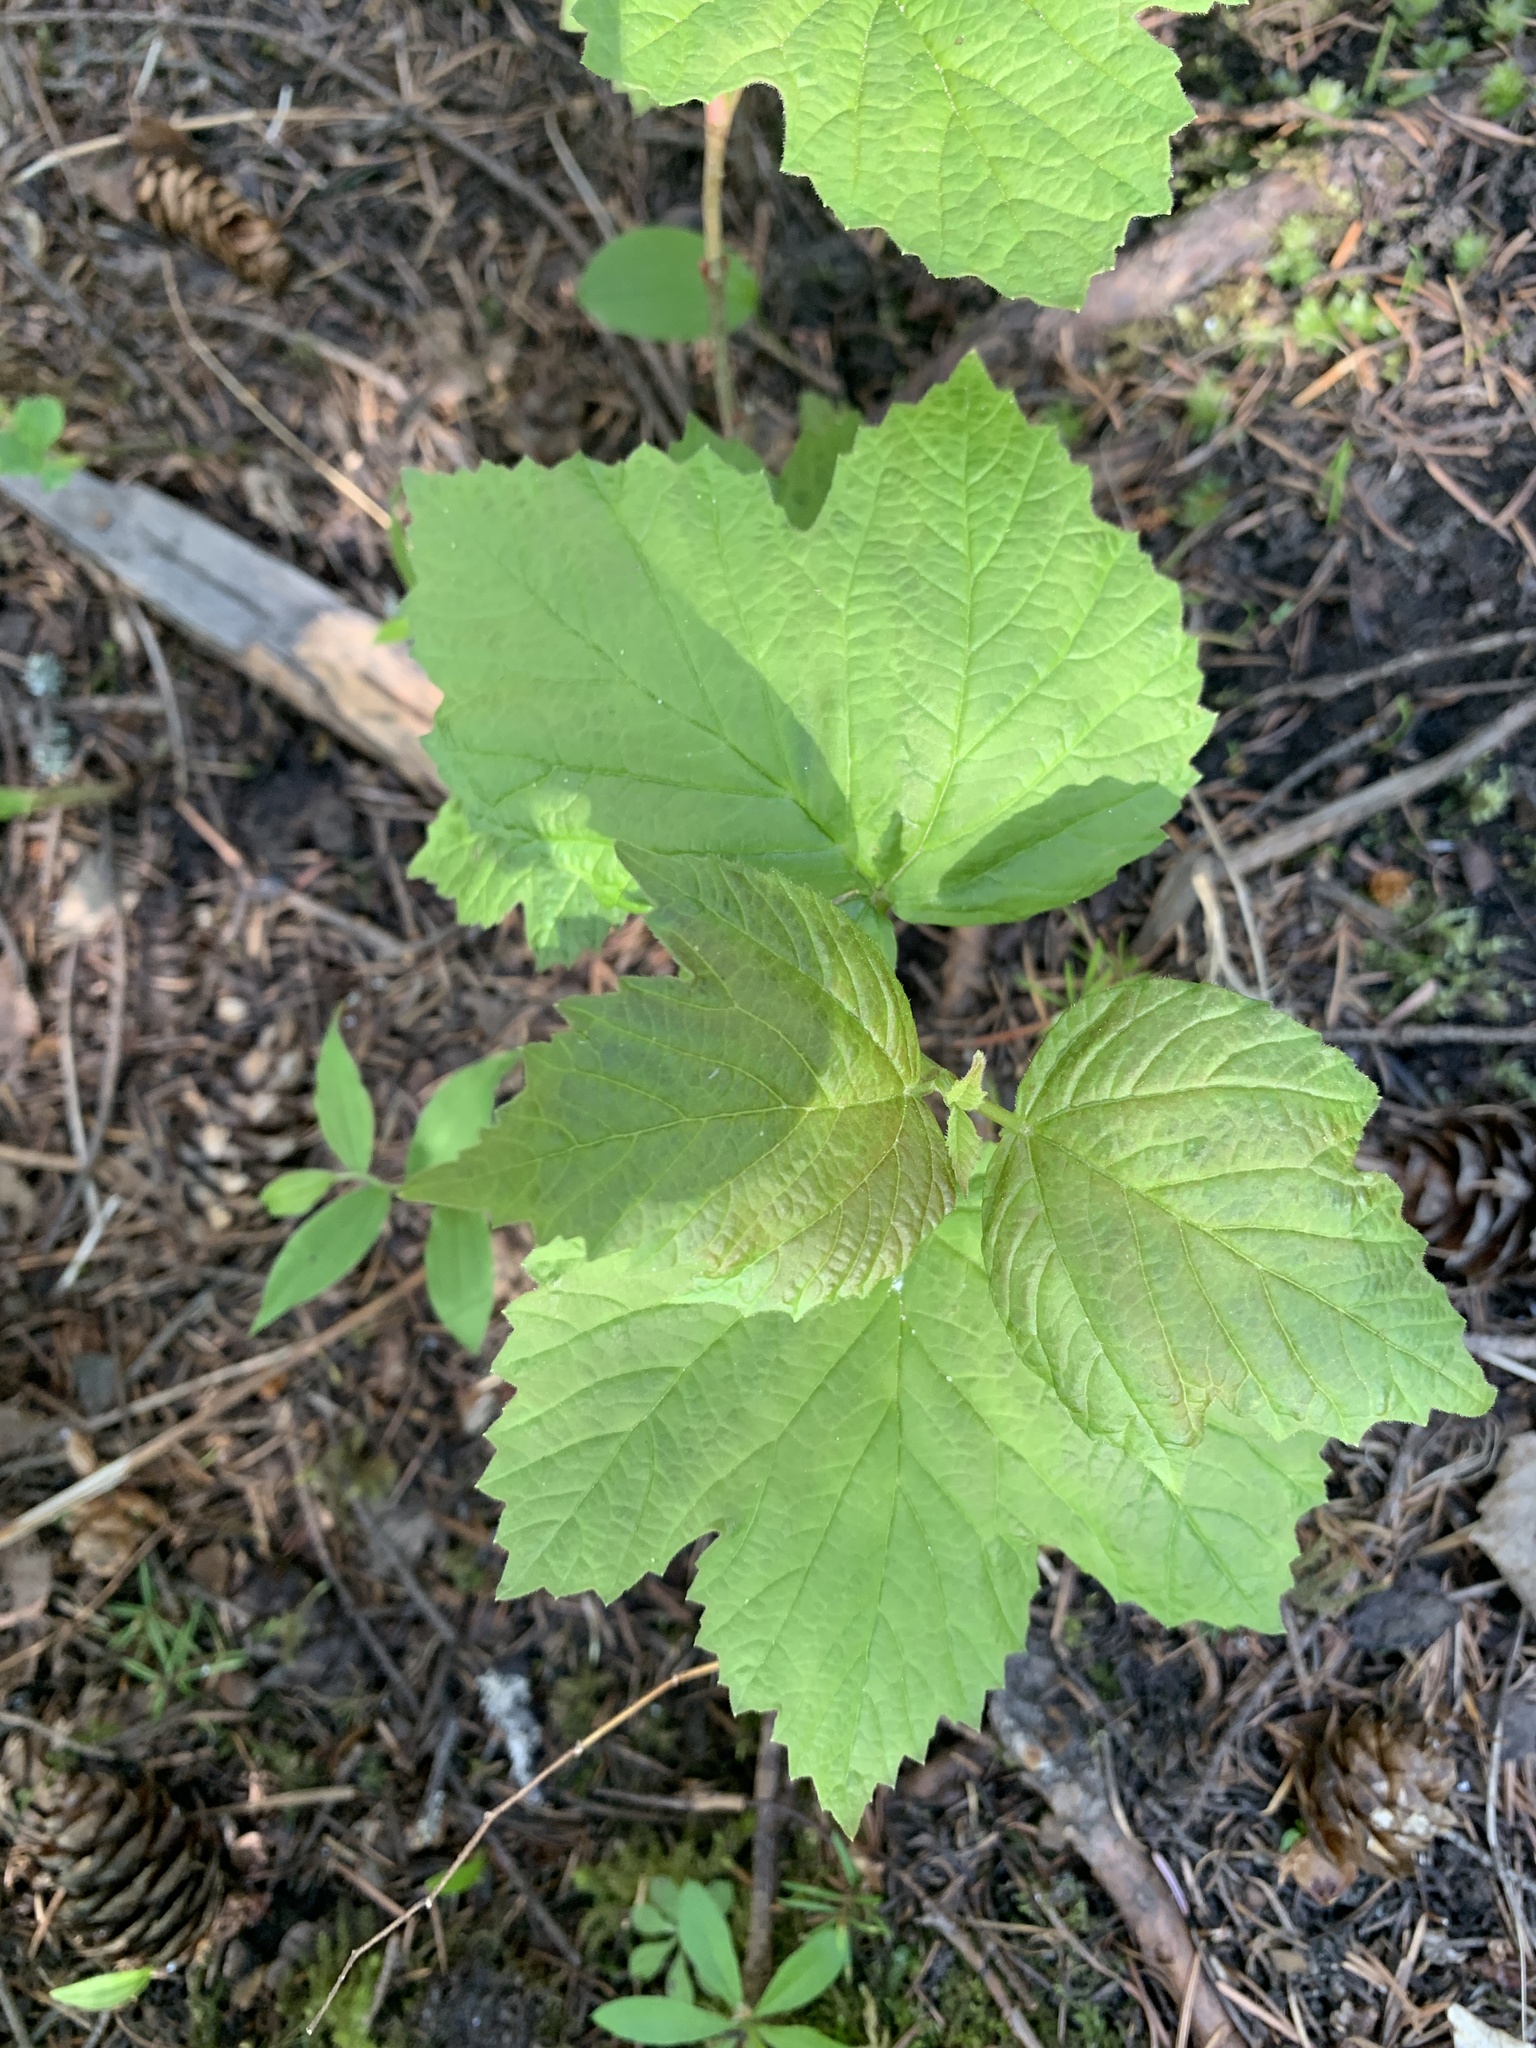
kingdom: Plantae
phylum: Tracheophyta
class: Magnoliopsida
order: Dipsacales
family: Viburnaceae
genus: Viburnum
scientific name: Viburnum edule
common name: Mooseberry
